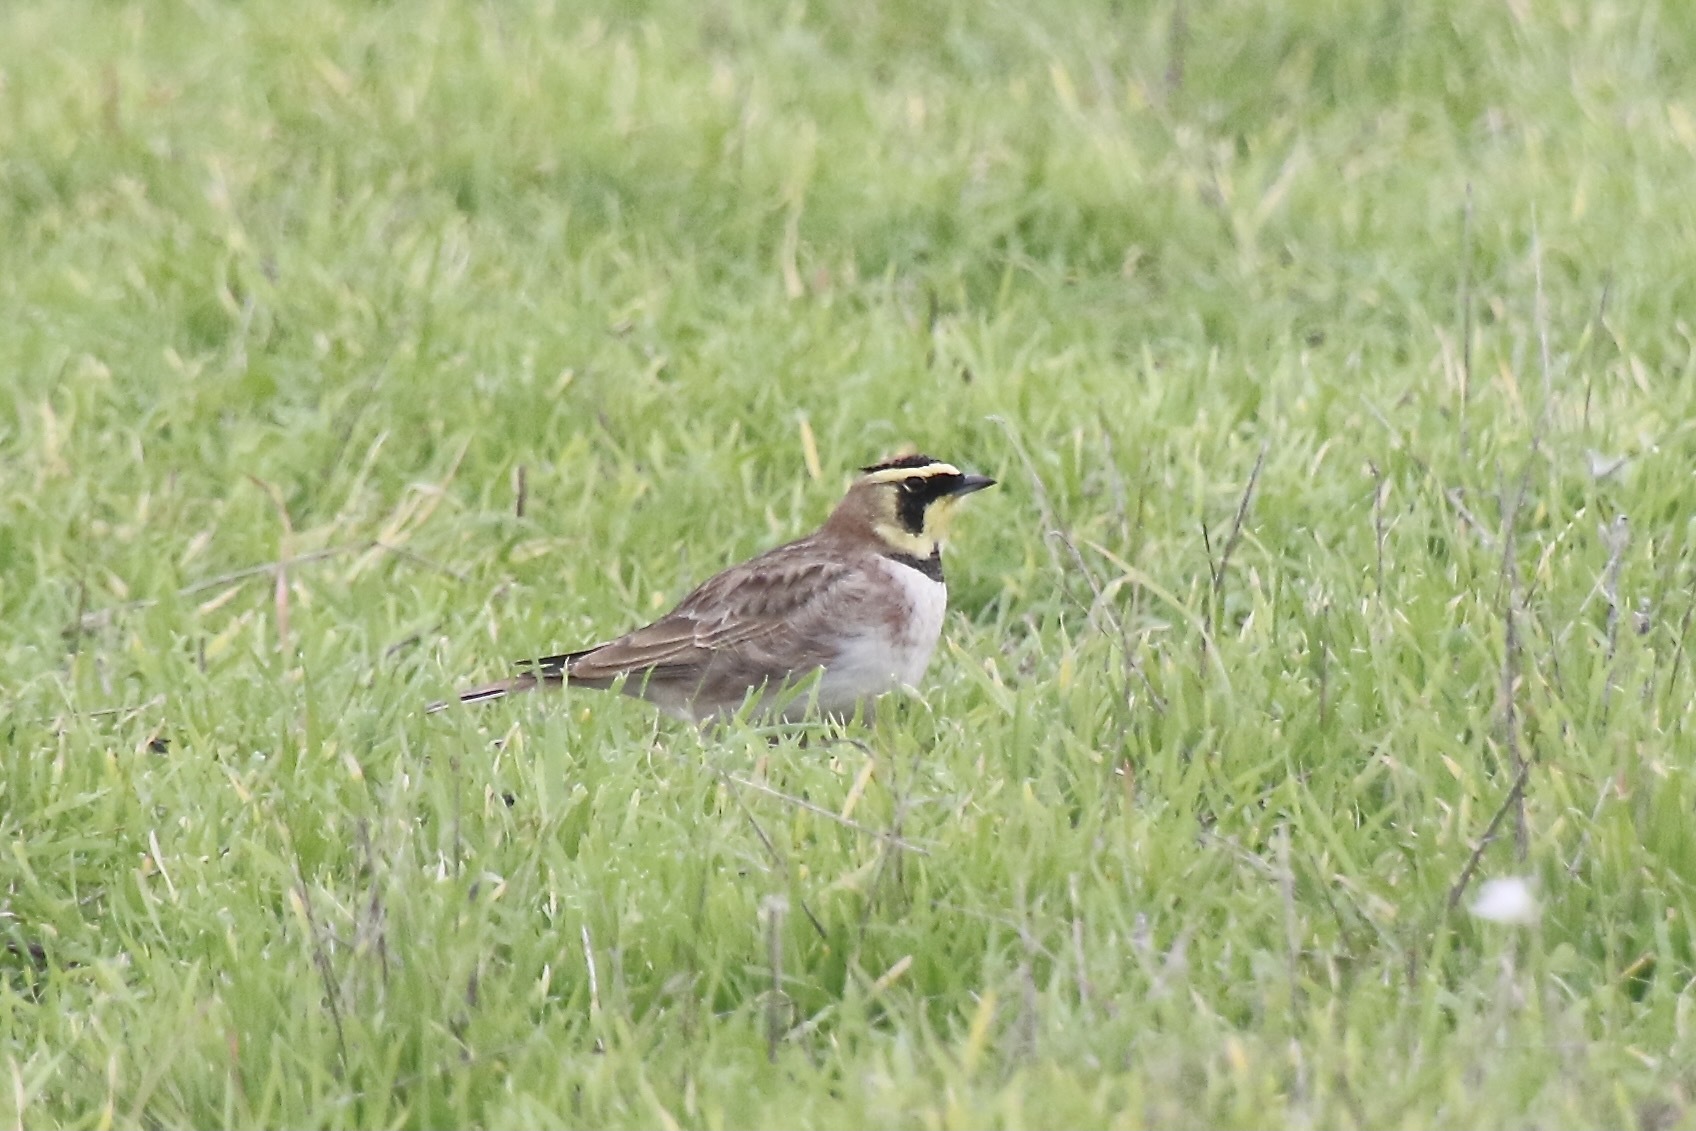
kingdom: Animalia
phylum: Chordata
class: Aves
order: Passeriformes
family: Alaudidae
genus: Eremophila
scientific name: Eremophila alpestris
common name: Horned lark
